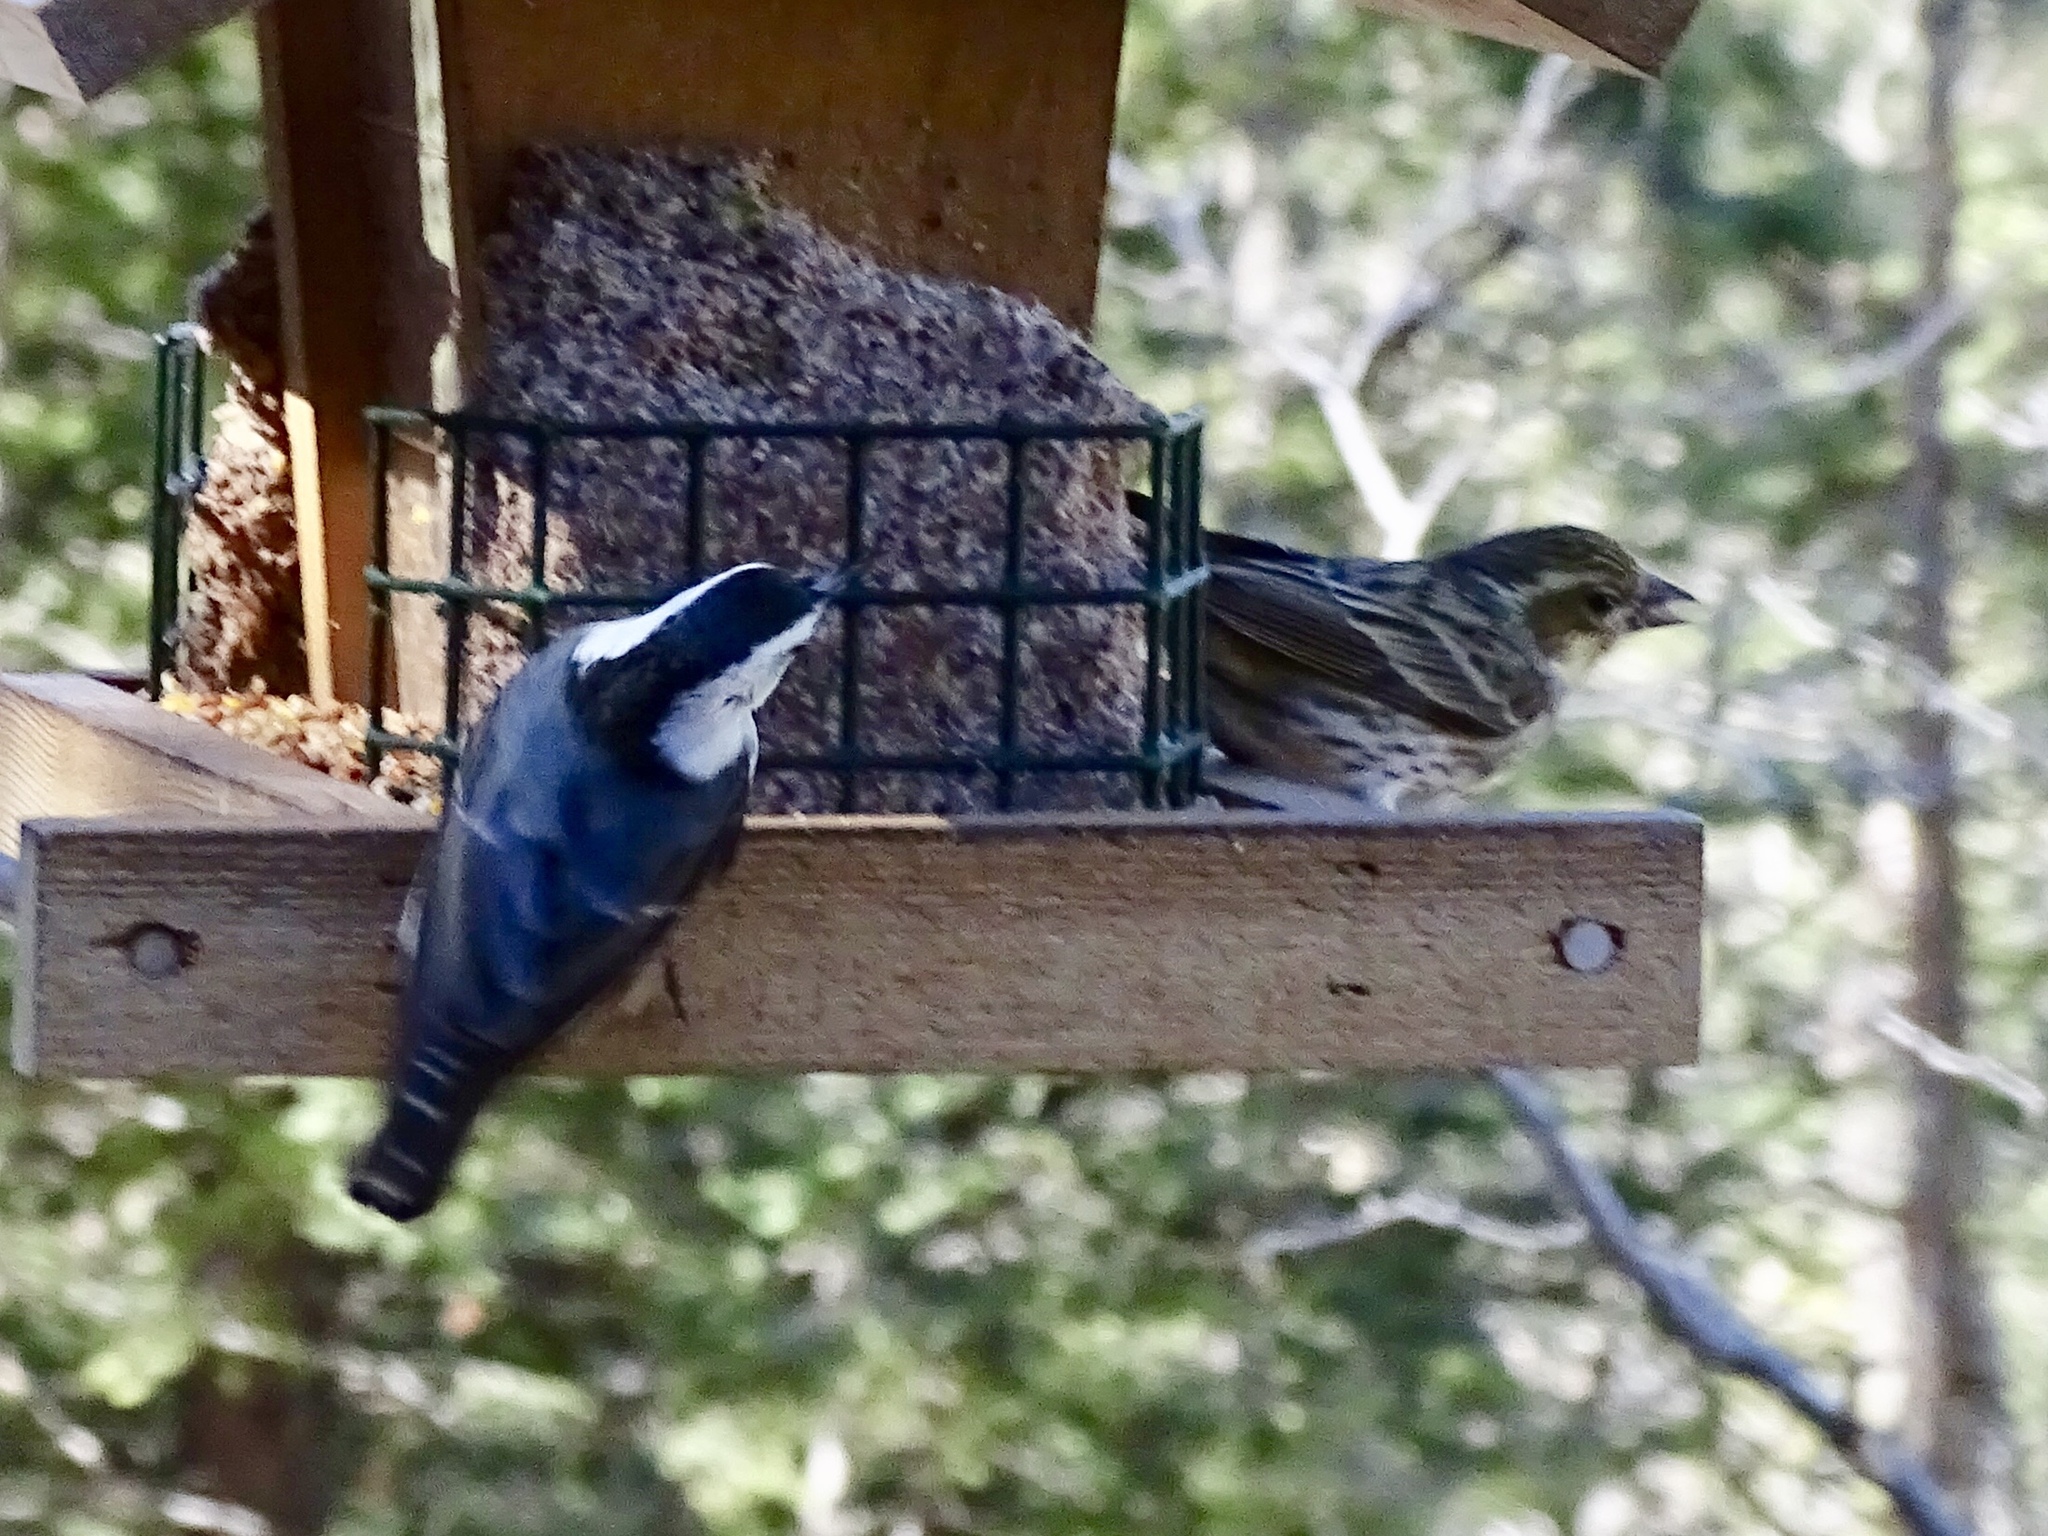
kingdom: Animalia
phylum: Chordata
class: Aves
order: Passeriformes
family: Sittidae
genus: Sitta
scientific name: Sitta carolinensis
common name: White-breasted nuthatch
